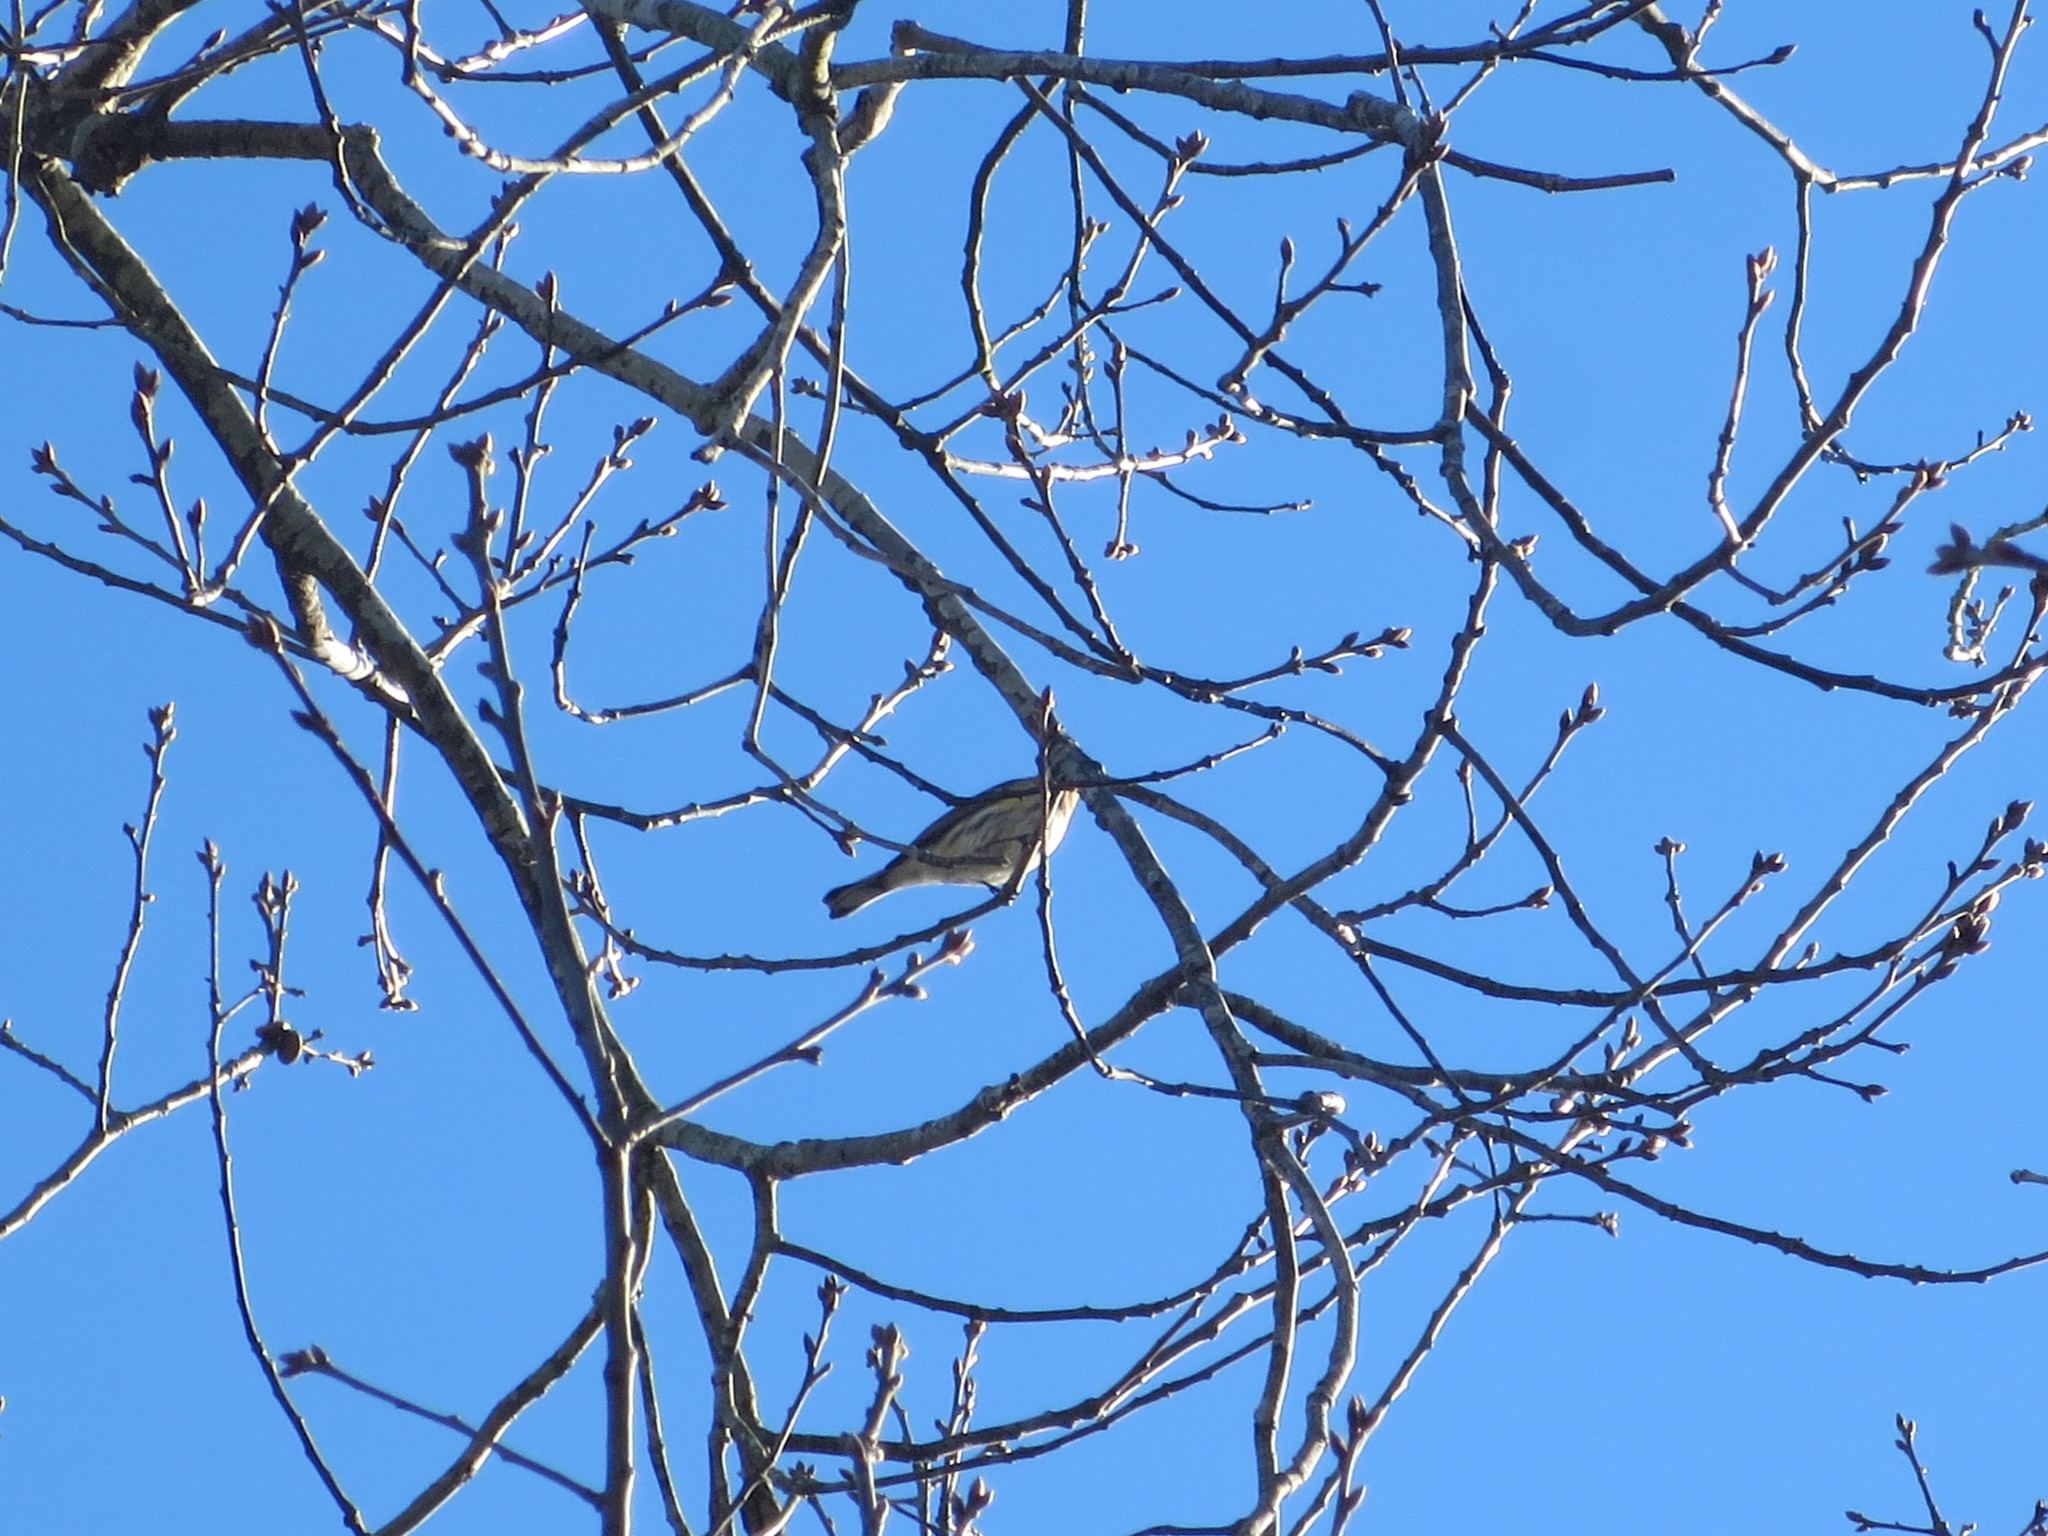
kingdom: Animalia
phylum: Chordata
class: Aves
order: Passeriformes
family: Parulidae
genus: Setophaga
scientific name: Setophaga coronata
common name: Myrtle warbler
